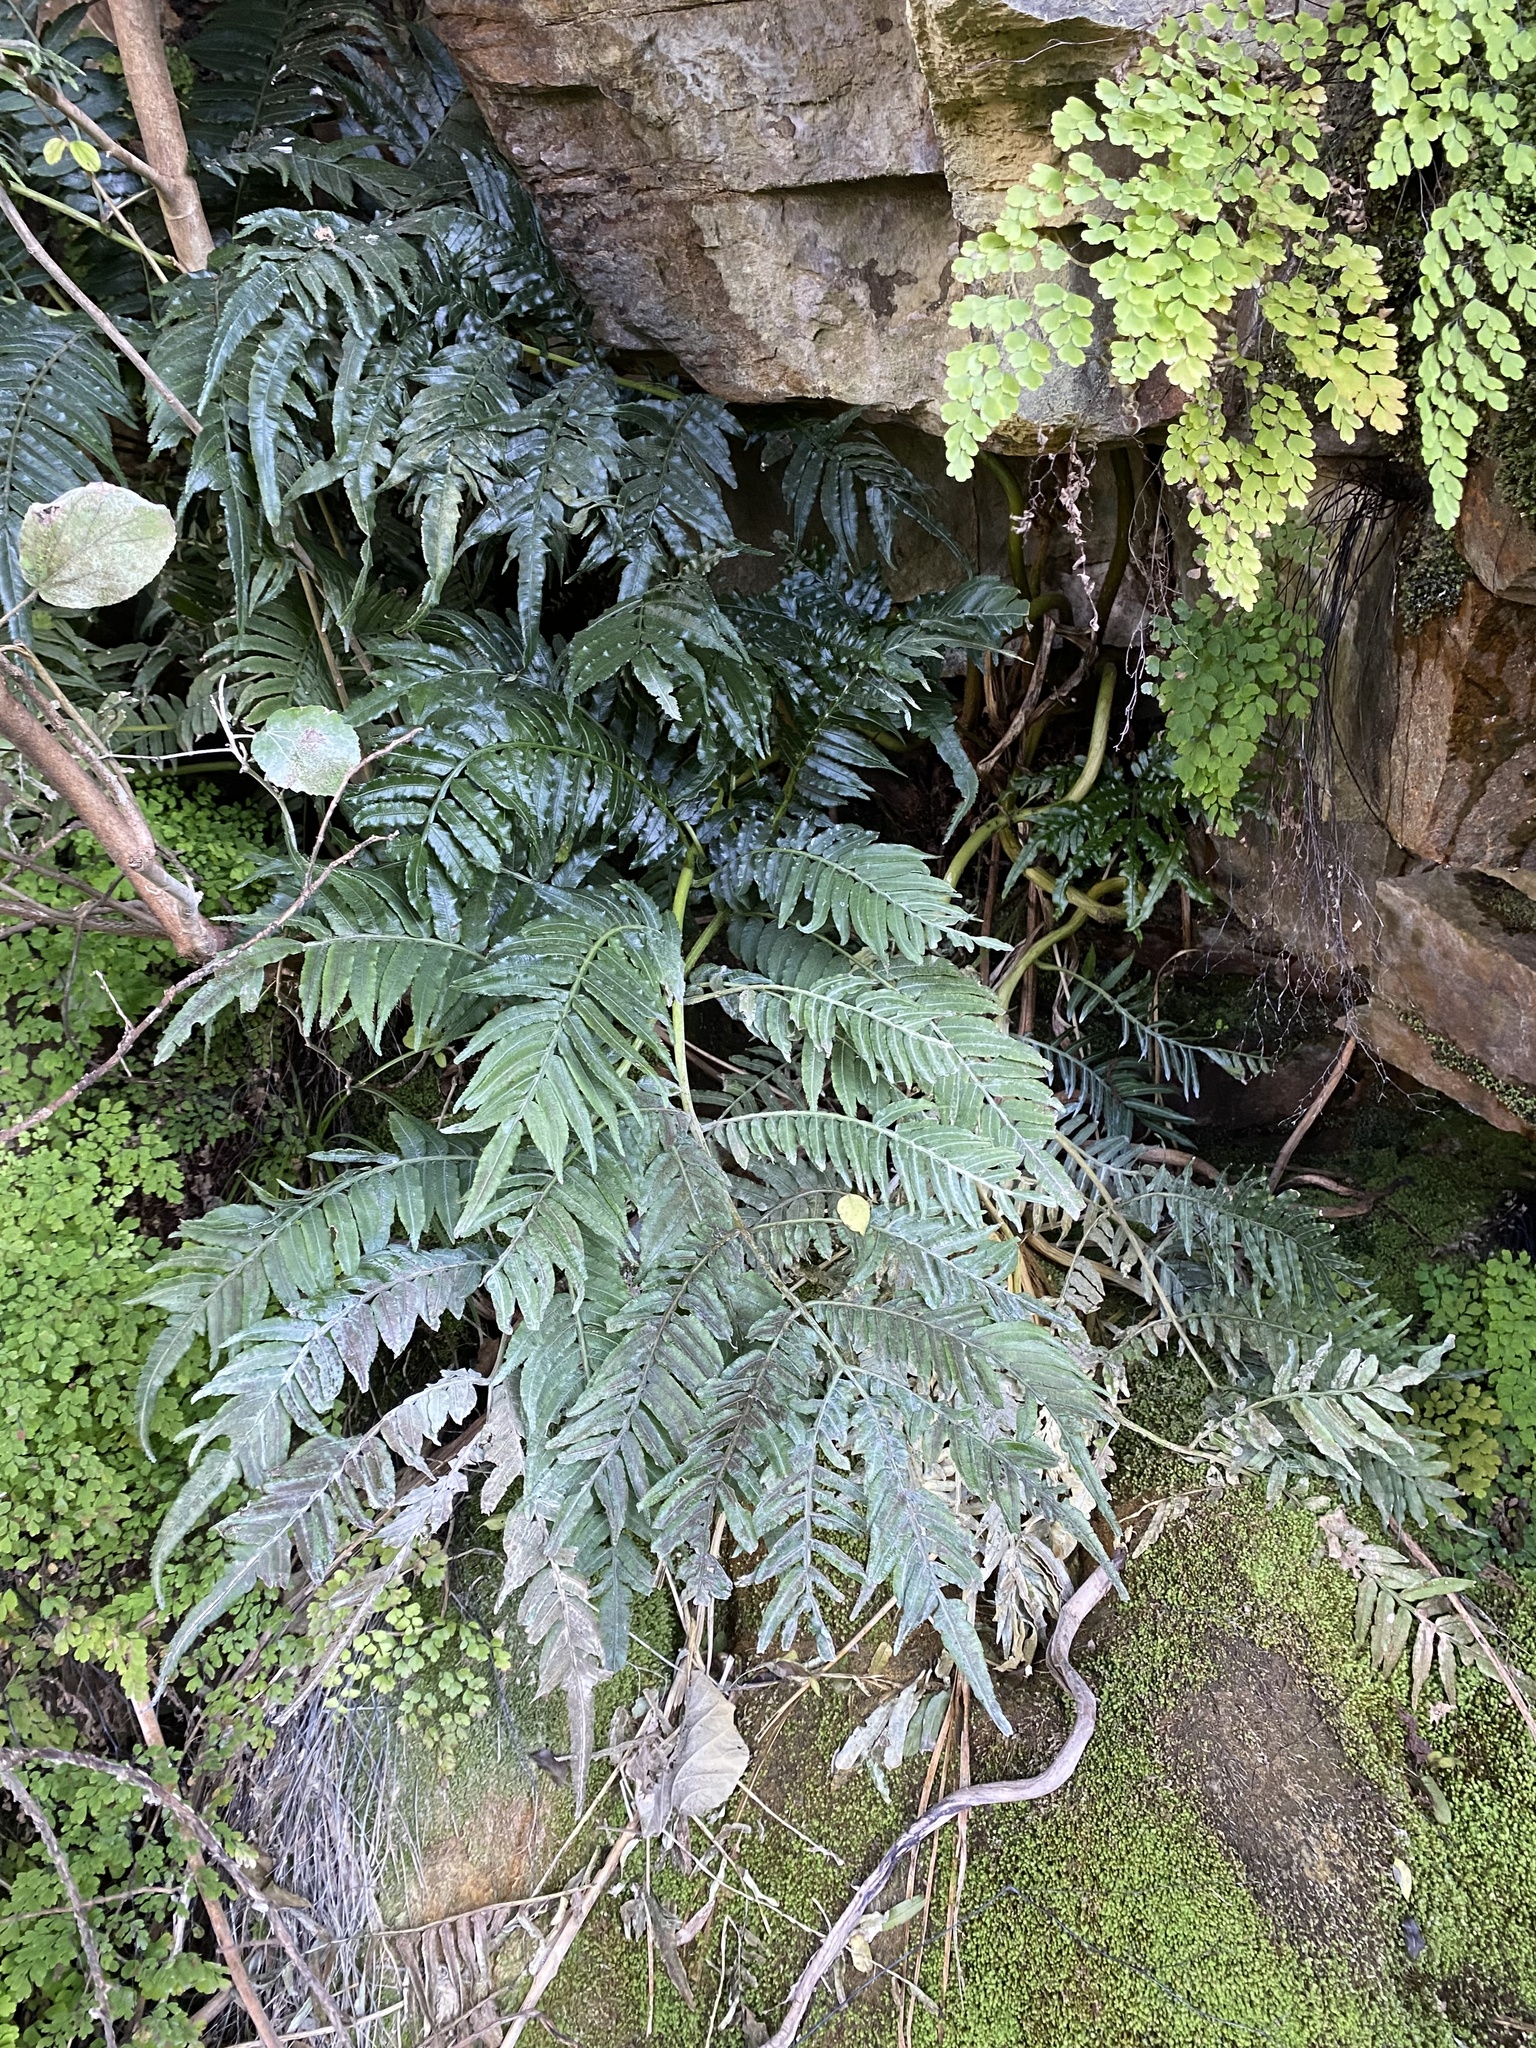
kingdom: Plantae
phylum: Tracheophyta
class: Polypodiopsida
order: Marattiales
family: Marattiaceae
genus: Ptisana
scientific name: Ptisana salicina
